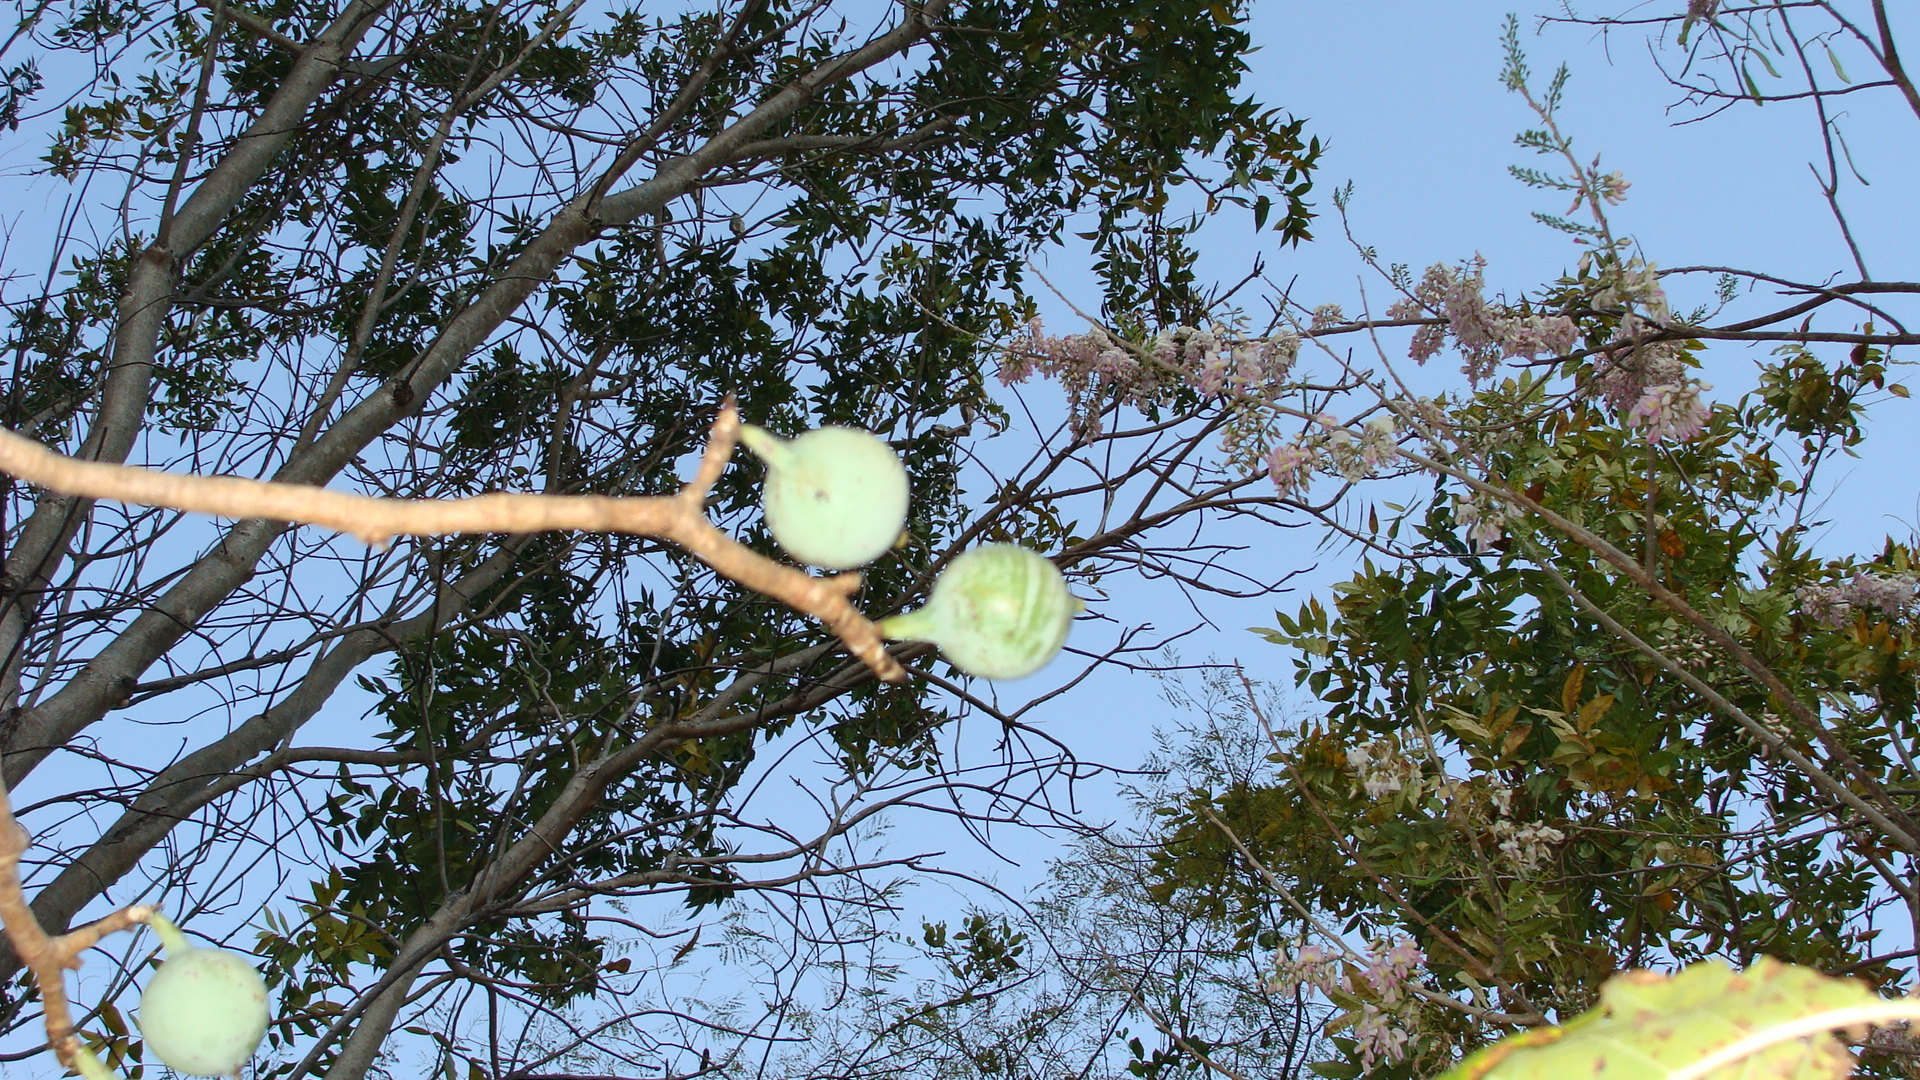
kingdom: Plantae
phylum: Tracheophyta
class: Magnoliopsida
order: Gentianales
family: Rubiaceae
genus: Genipa
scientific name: Genipa americana
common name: Genipap
